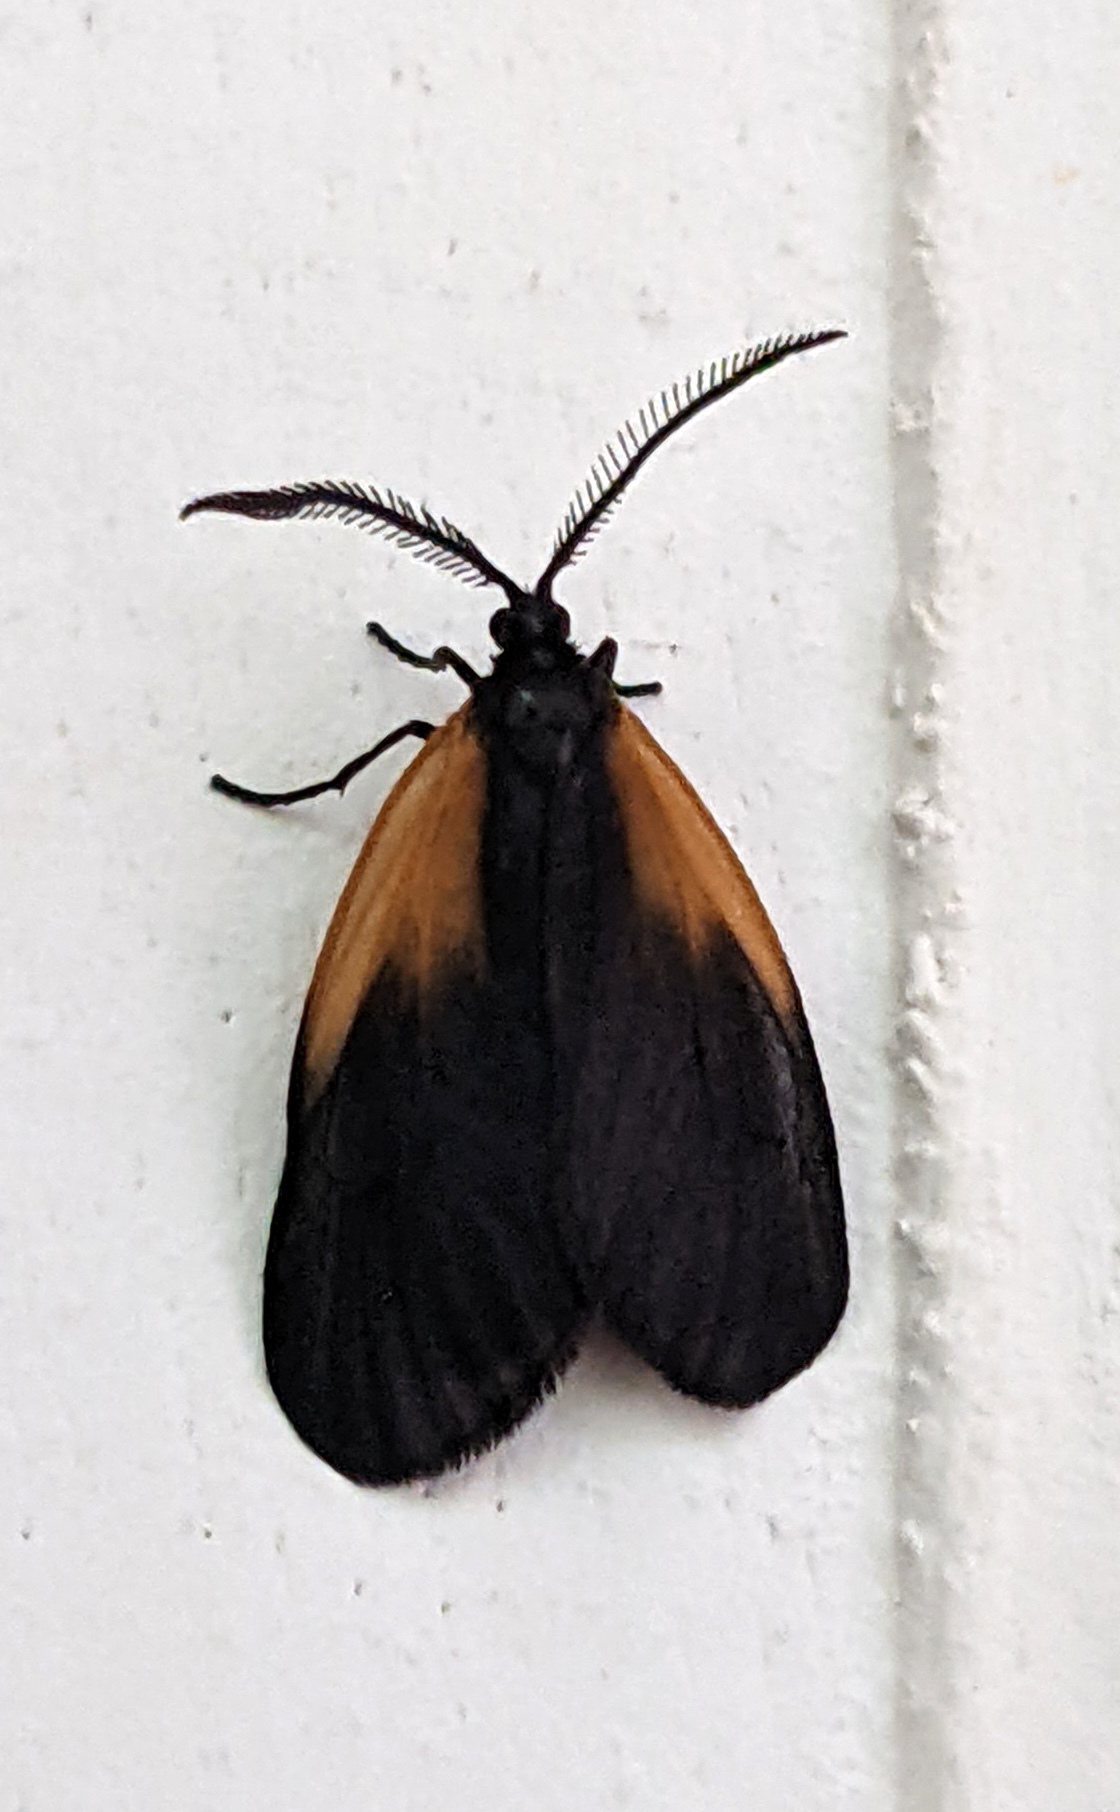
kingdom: Animalia
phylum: Arthropoda
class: Insecta
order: Lepidoptera
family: Zygaenidae
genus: Malthaca
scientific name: Malthaca dimidiata
